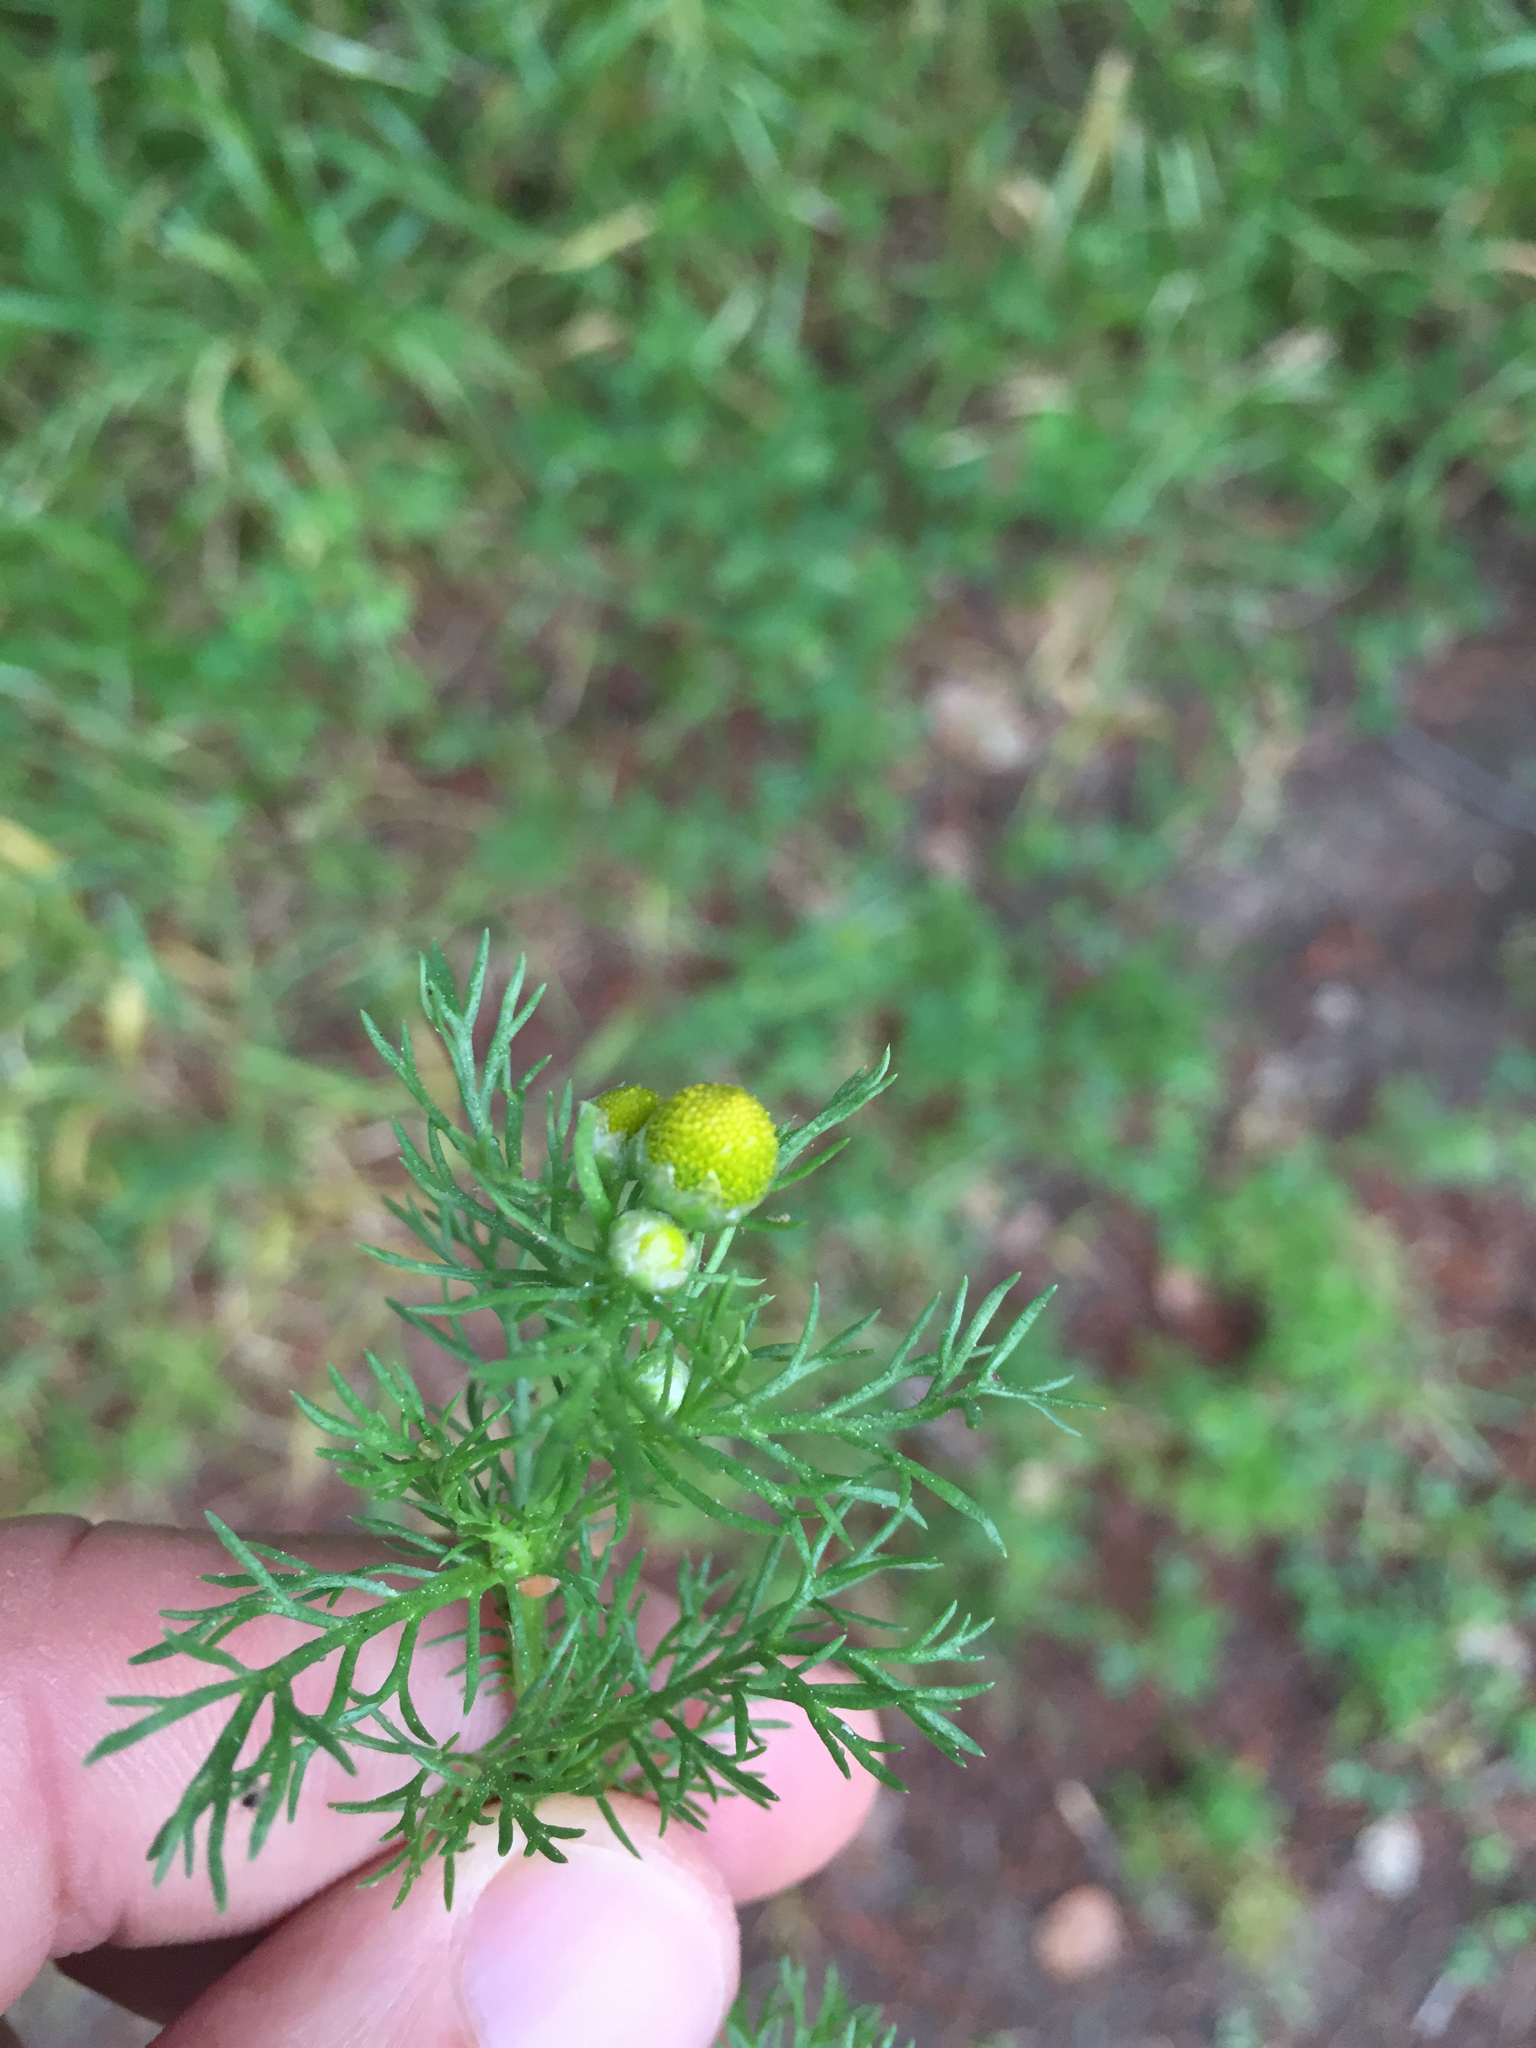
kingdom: Plantae
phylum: Tracheophyta
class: Magnoliopsida
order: Asterales
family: Asteraceae
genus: Matricaria
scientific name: Matricaria discoidea
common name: Disc mayweed
